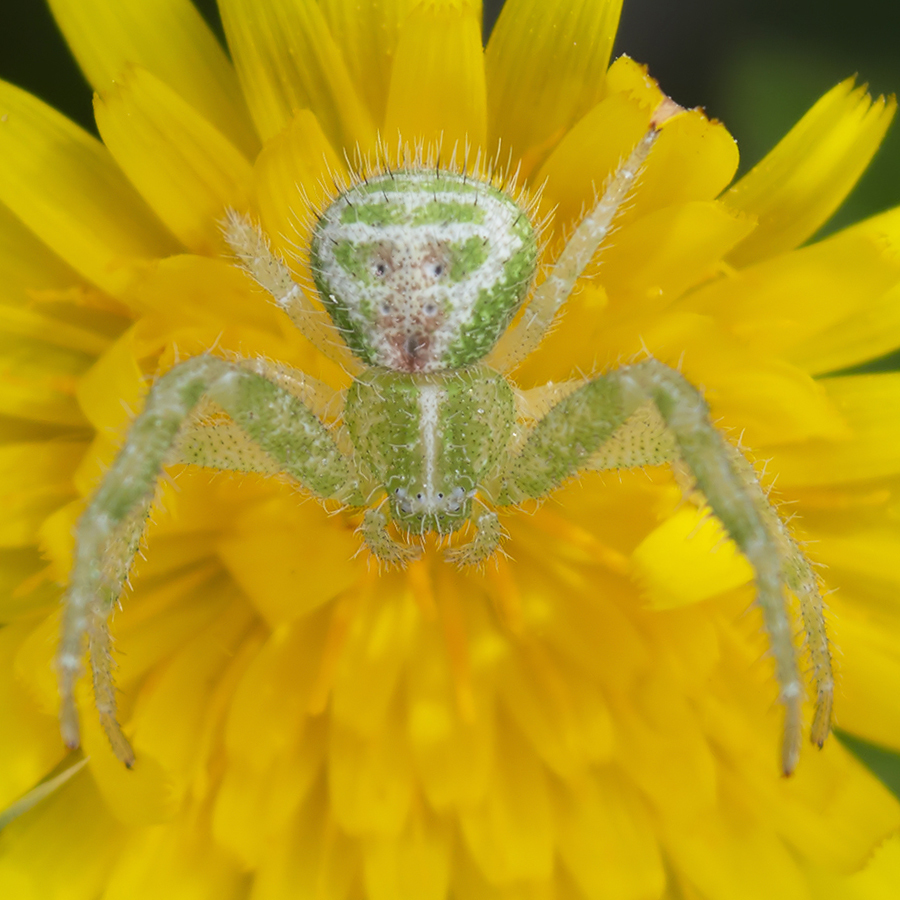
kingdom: Animalia
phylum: Arthropoda
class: Arachnida
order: Araneae
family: Thomisidae
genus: Heriaeus
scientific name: Heriaeus simoni
